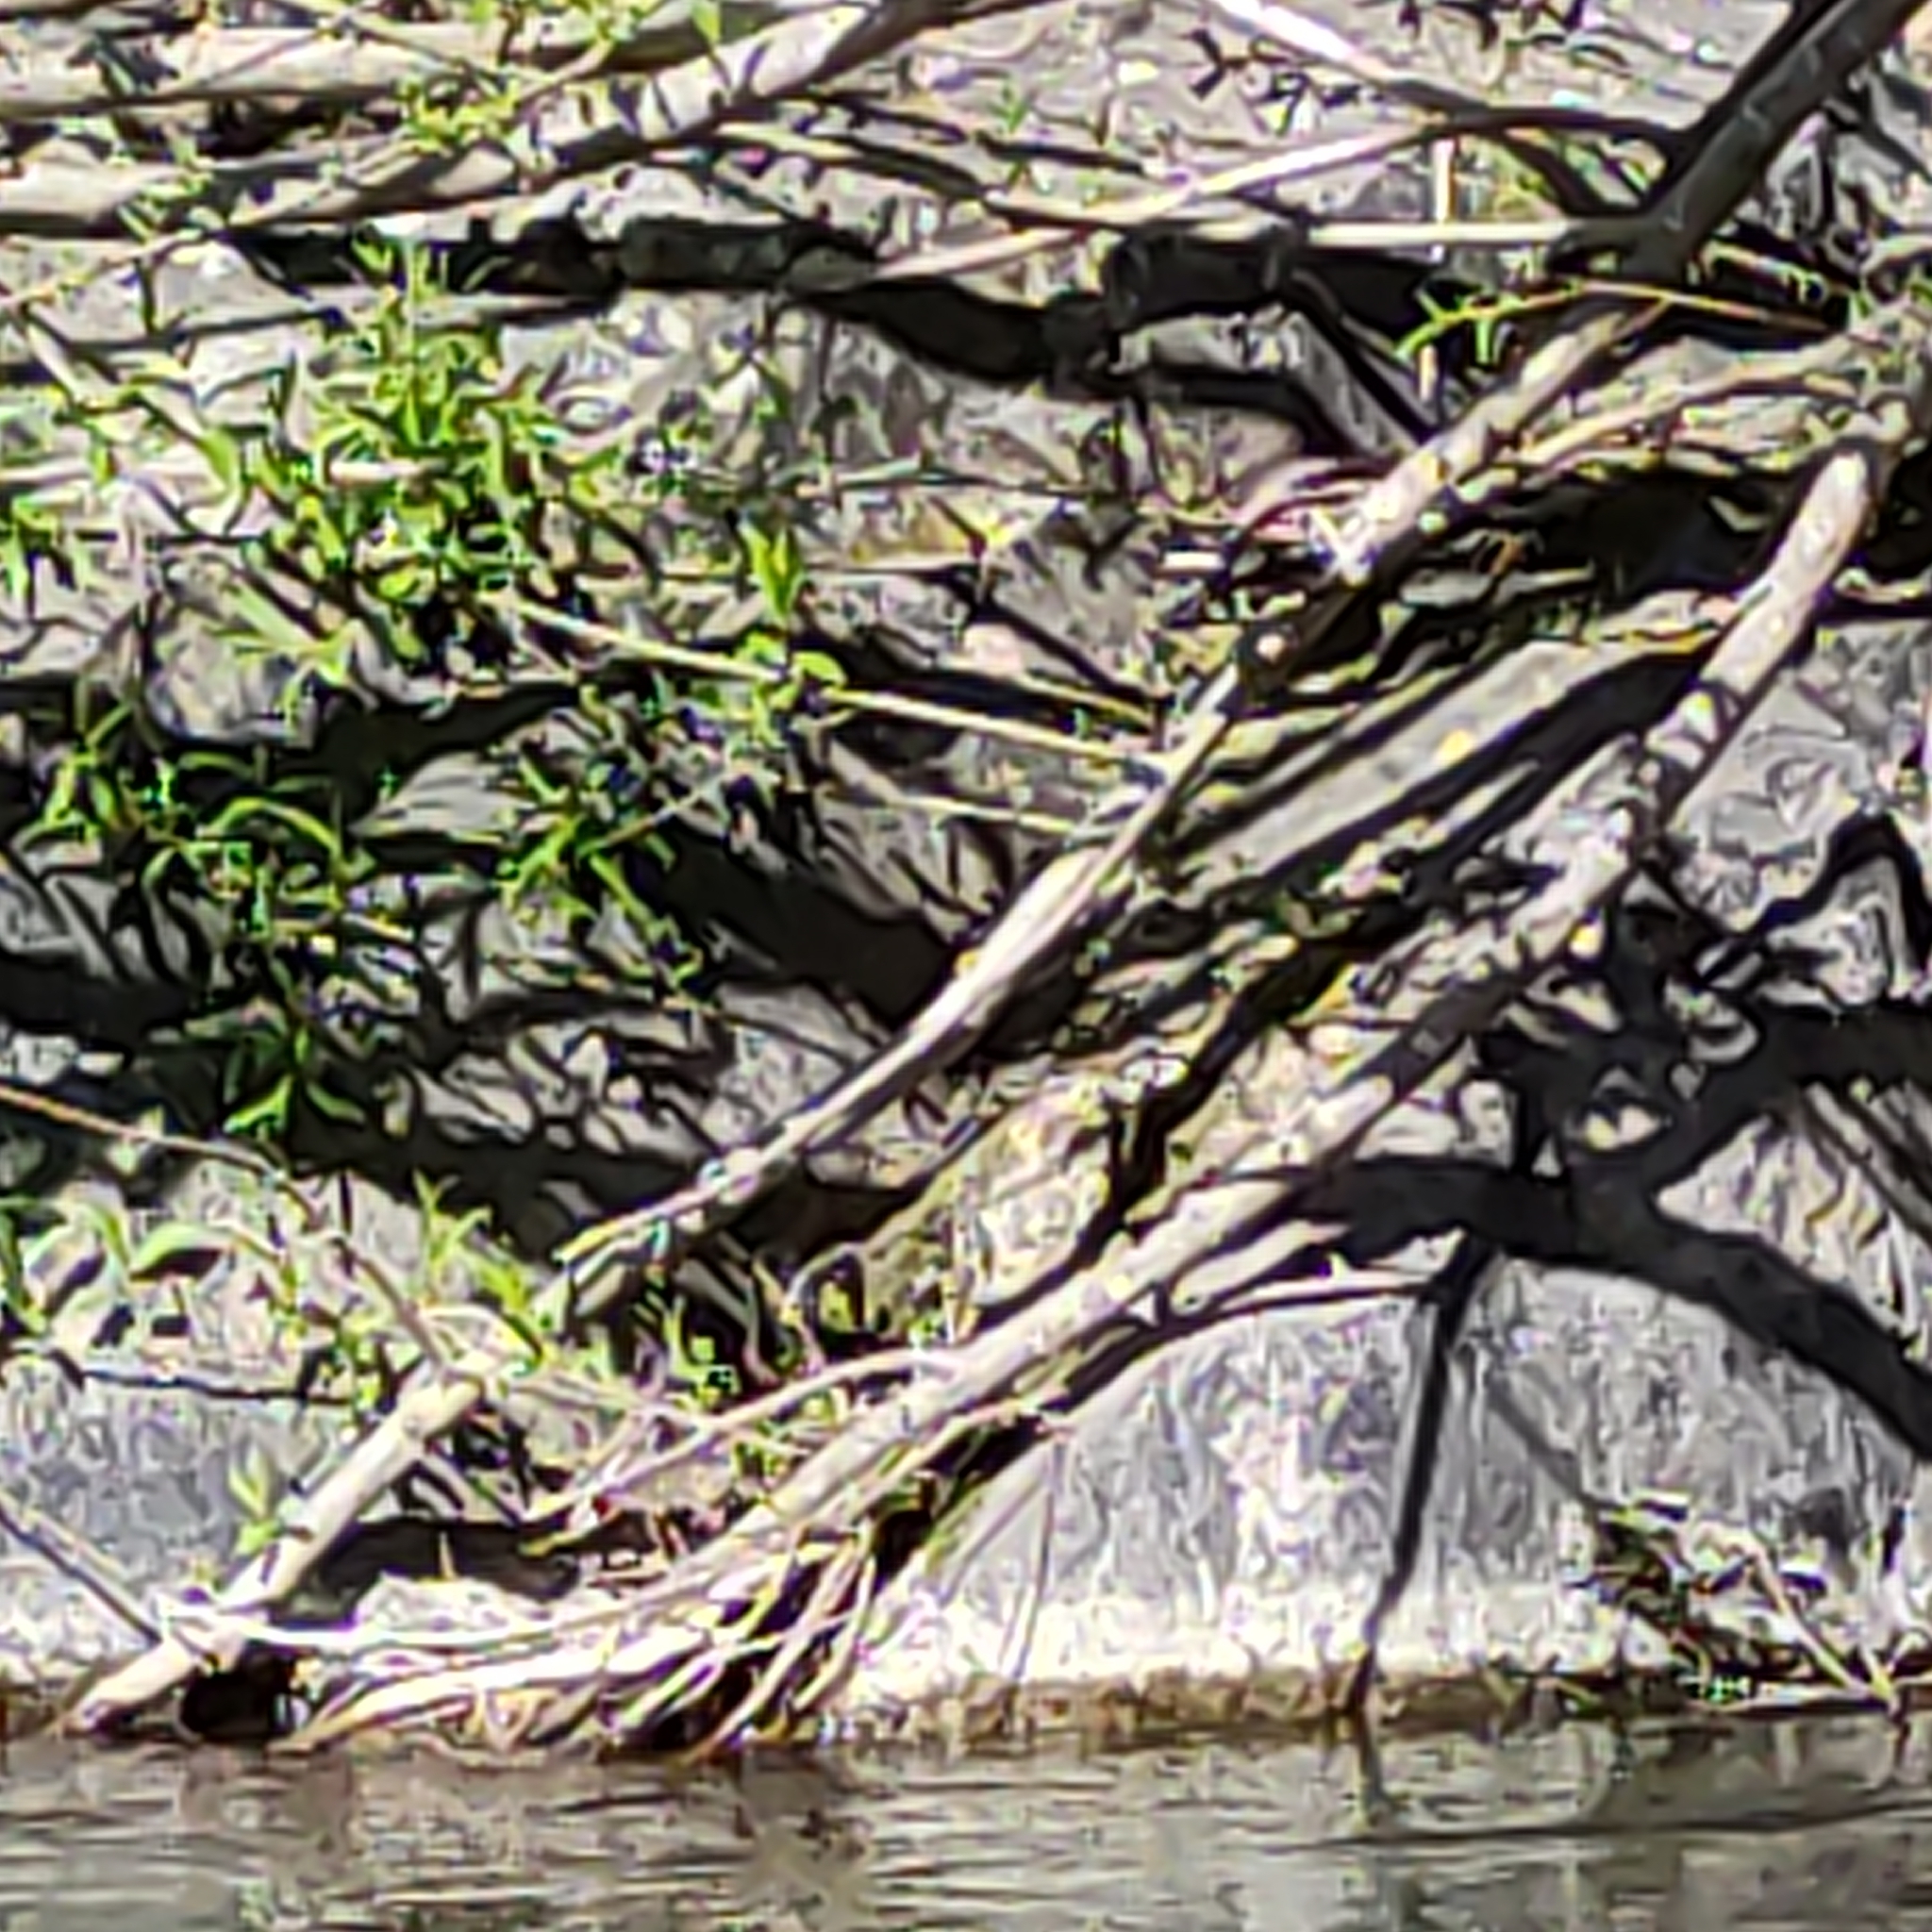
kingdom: Animalia
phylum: Chordata
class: Aves
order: Passeriformes
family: Rhipiduridae
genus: Rhipidura
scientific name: Rhipidura fuliginosa
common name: New zealand fantail
